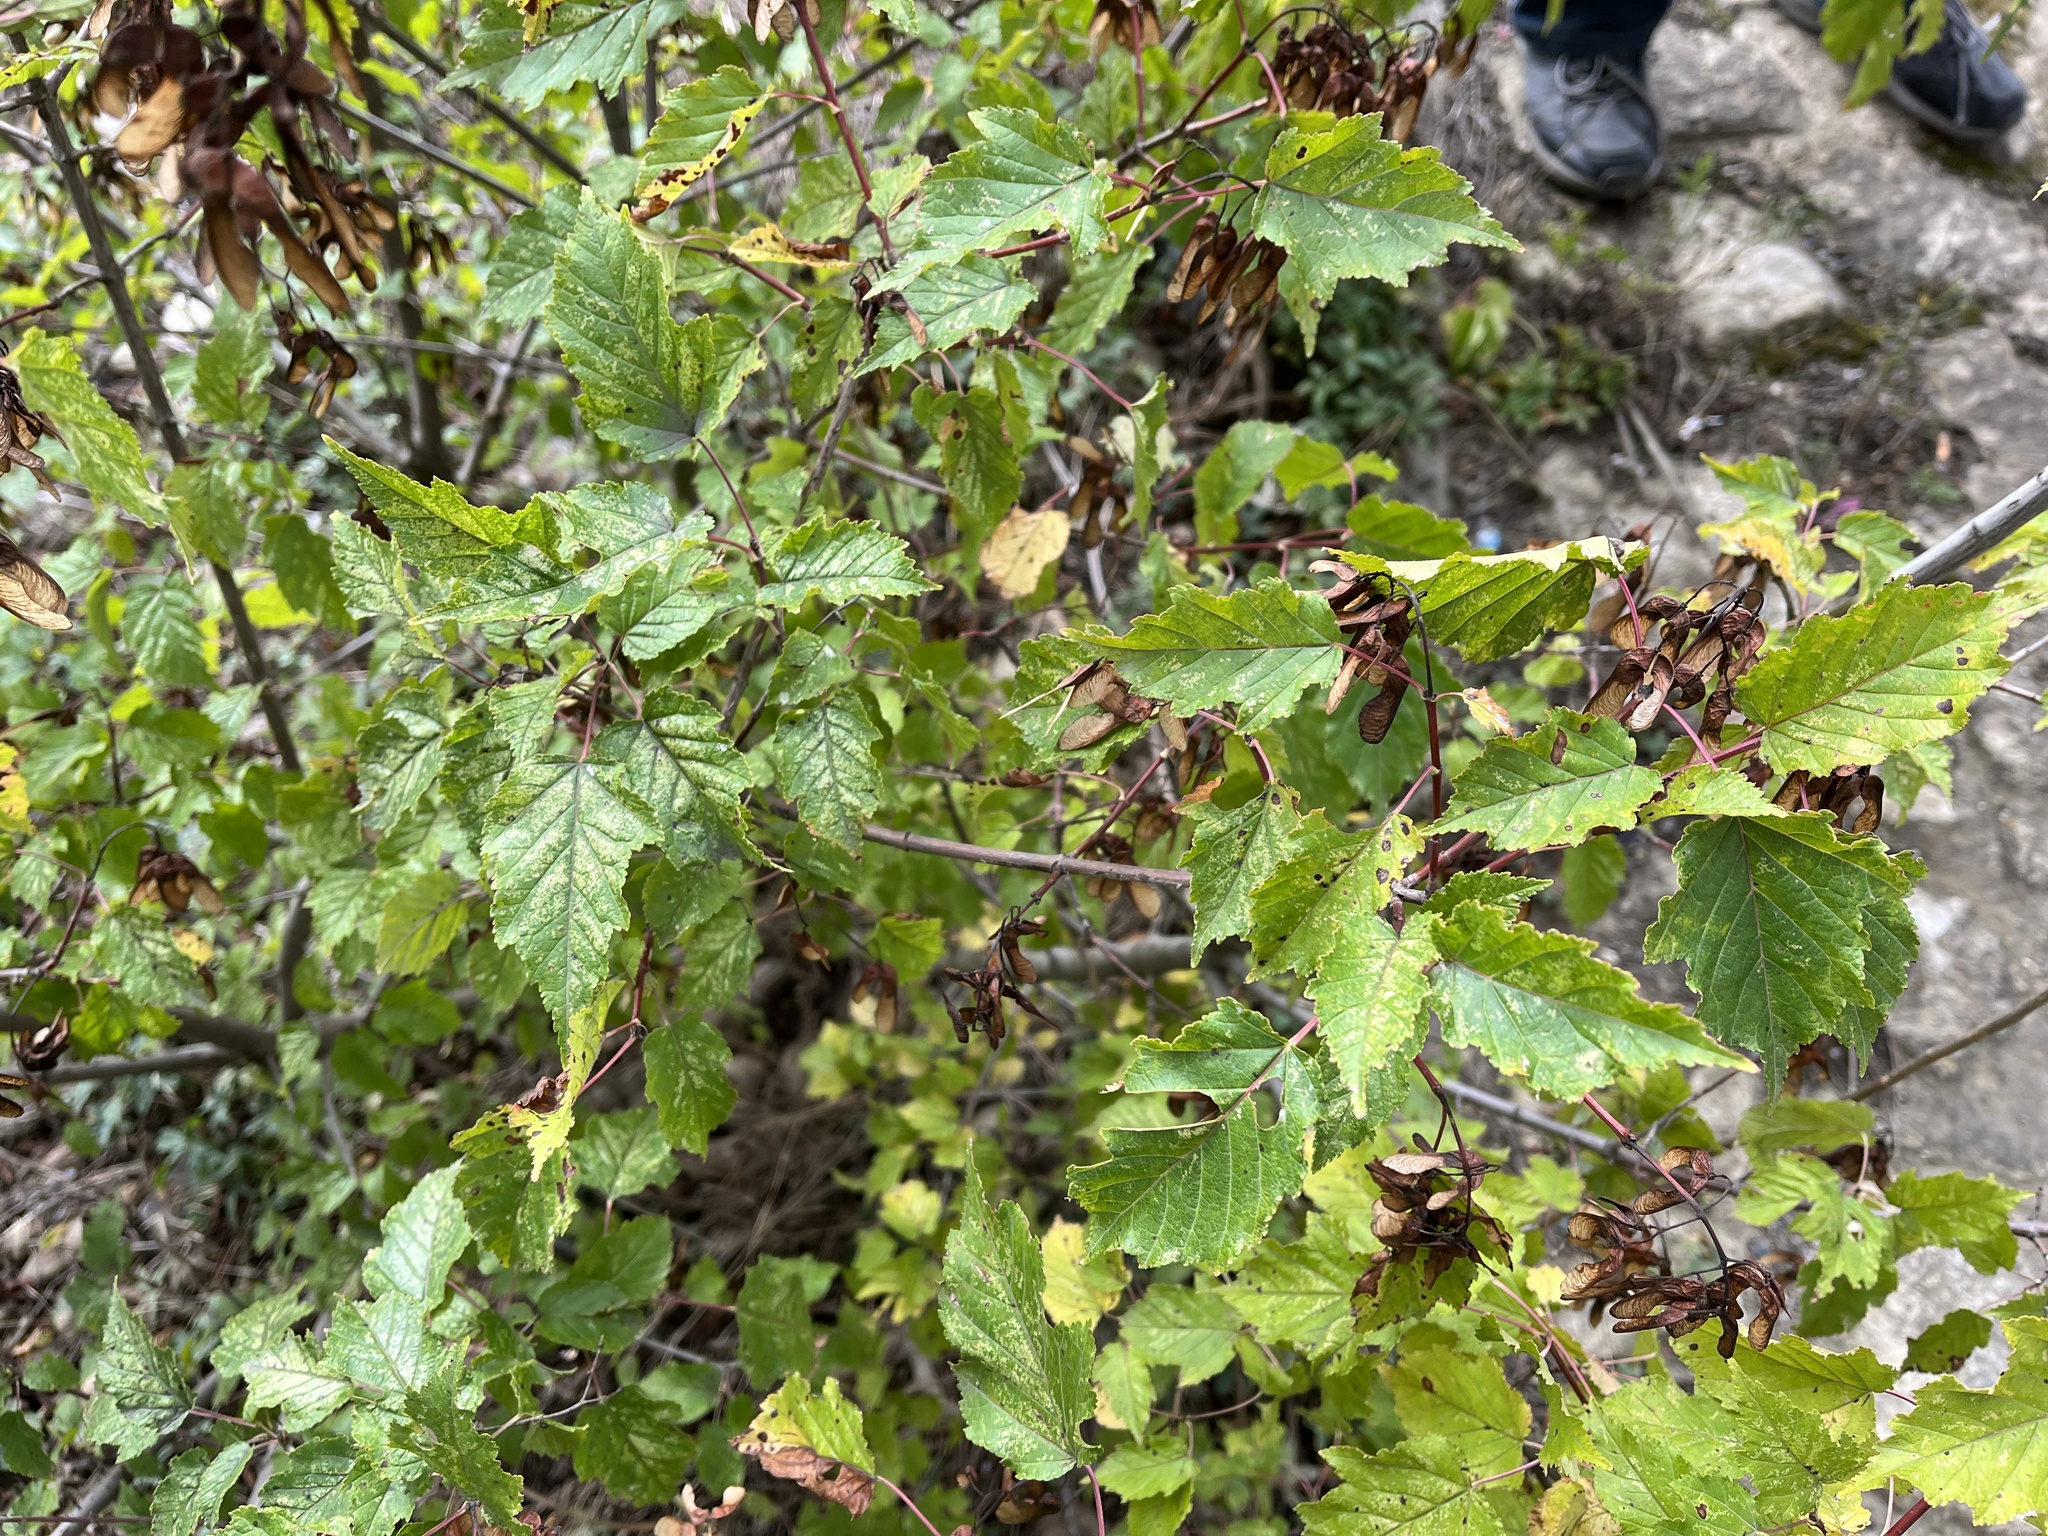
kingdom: Plantae
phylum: Tracheophyta
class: Magnoliopsida
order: Sapindales
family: Sapindaceae
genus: Acer
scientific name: Acer tataricum
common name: Tartar maple
